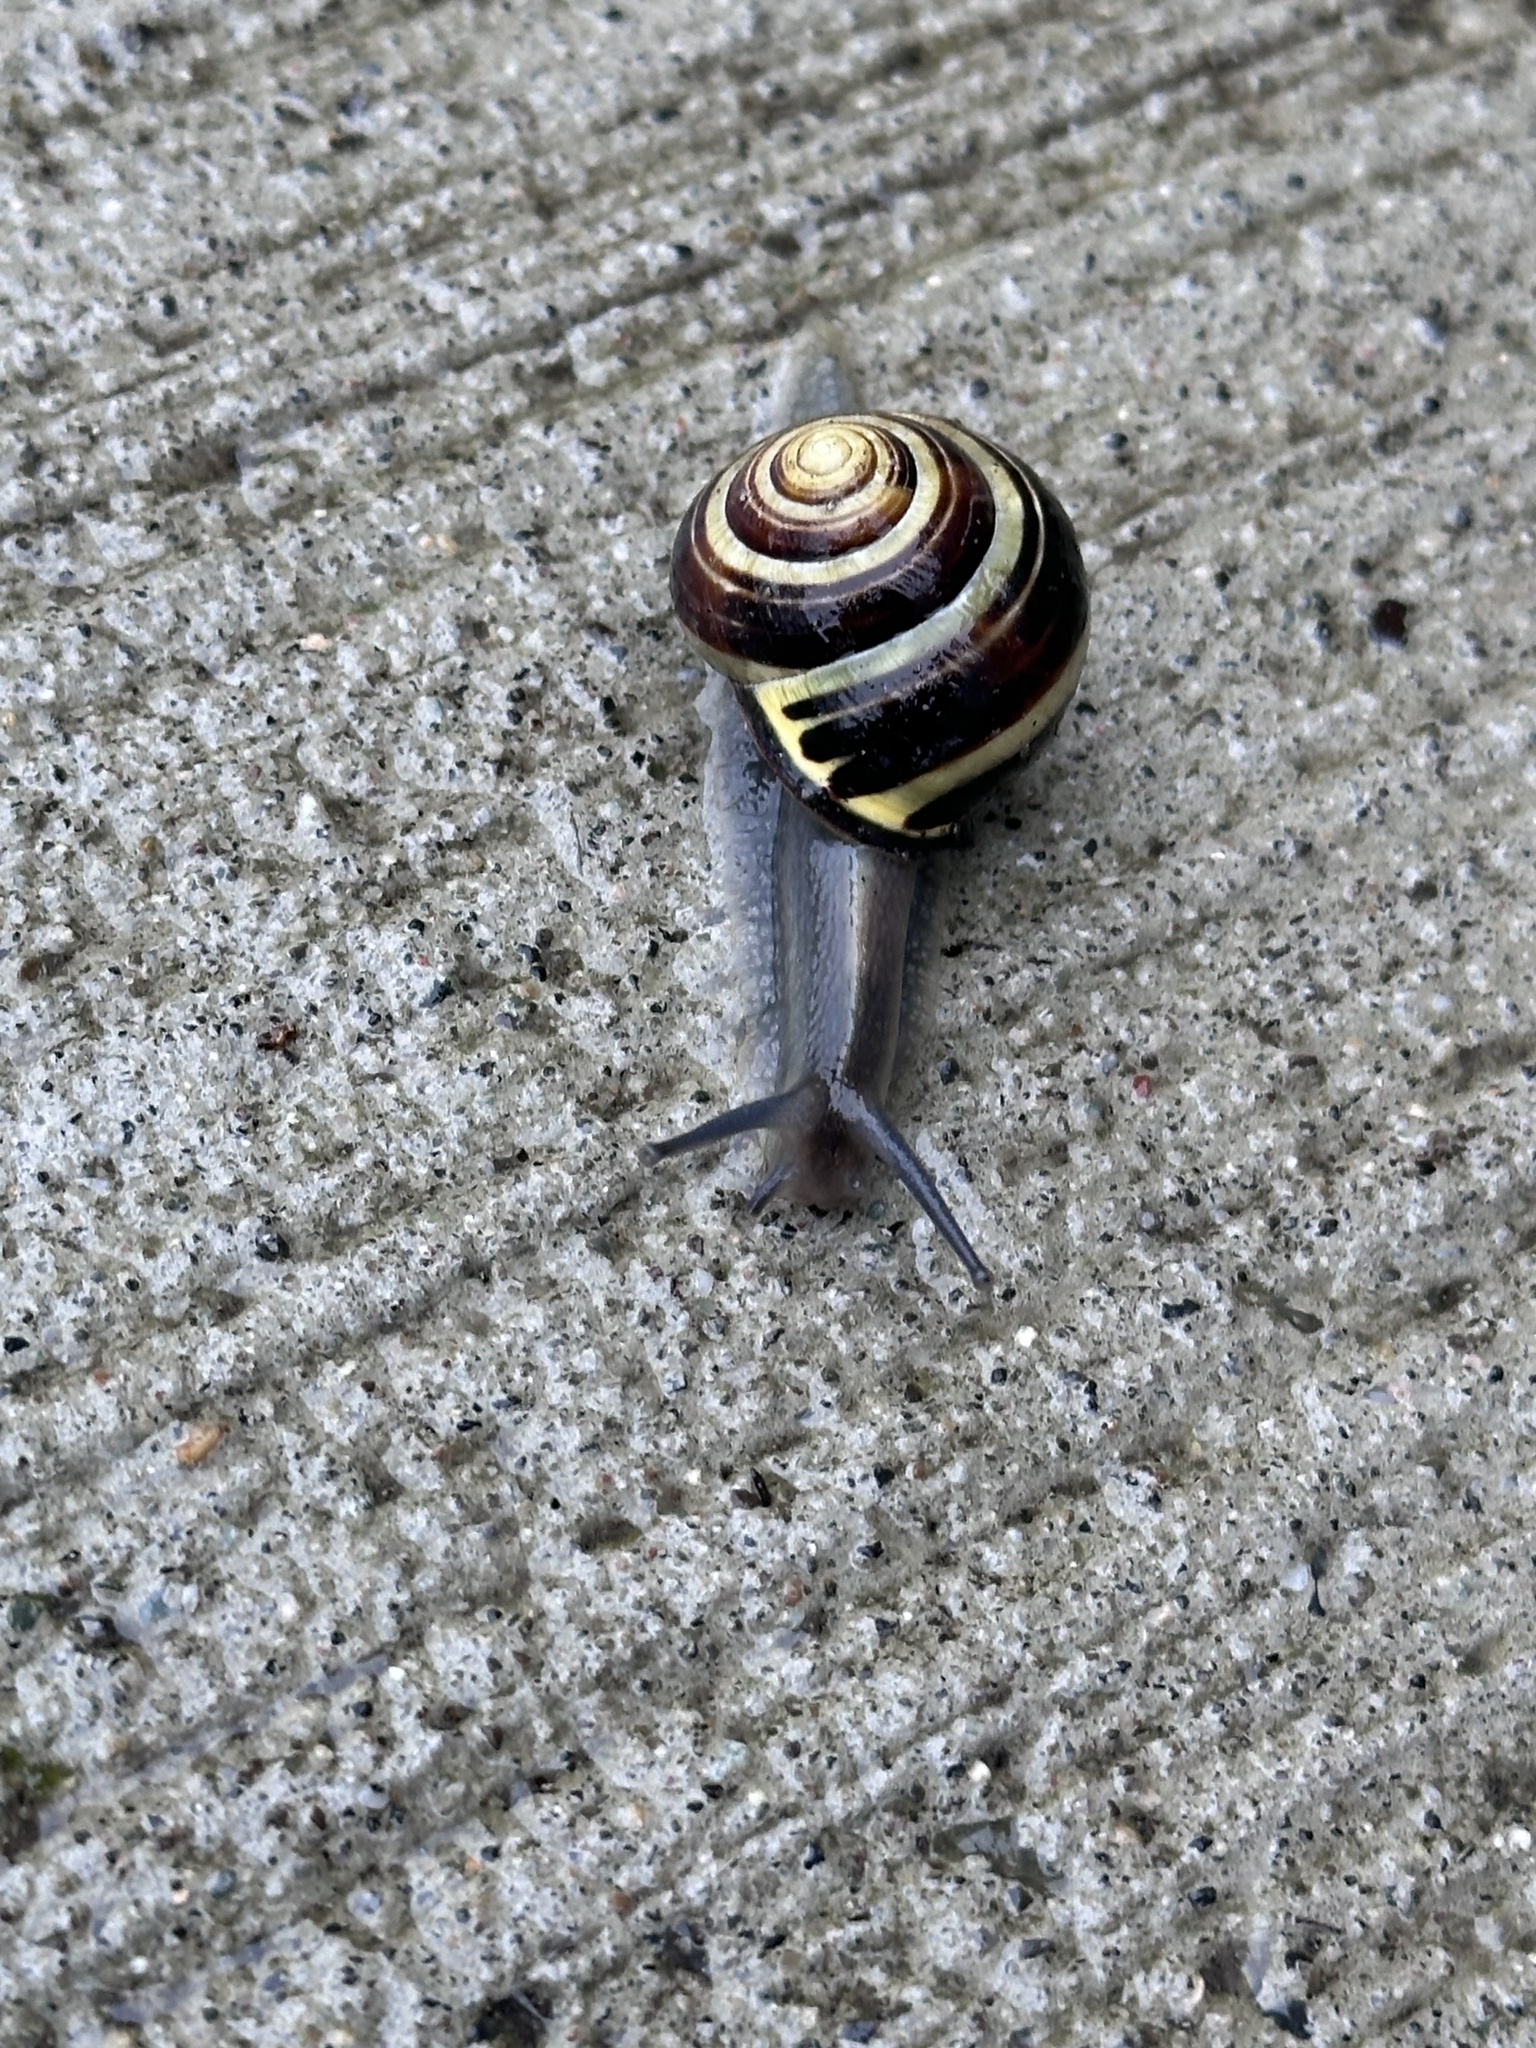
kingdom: Animalia
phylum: Mollusca
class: Gastropoda
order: Stylommatophora
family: Helicidae
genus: Cepaea
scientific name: Cepaea nemoralis
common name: Grovesnail
